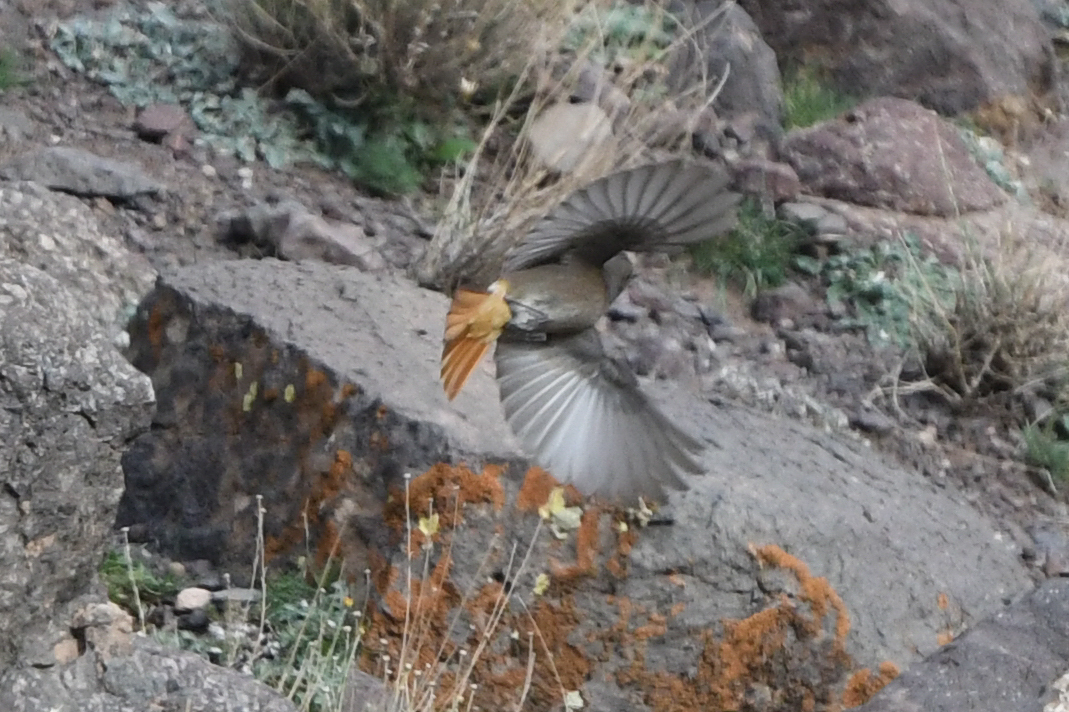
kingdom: Animalia
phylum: Chordata
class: Aves
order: Passeriformes
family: Muscicapidae
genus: Phoenicurus
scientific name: Phoenicurus ochruros
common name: Black redstart
